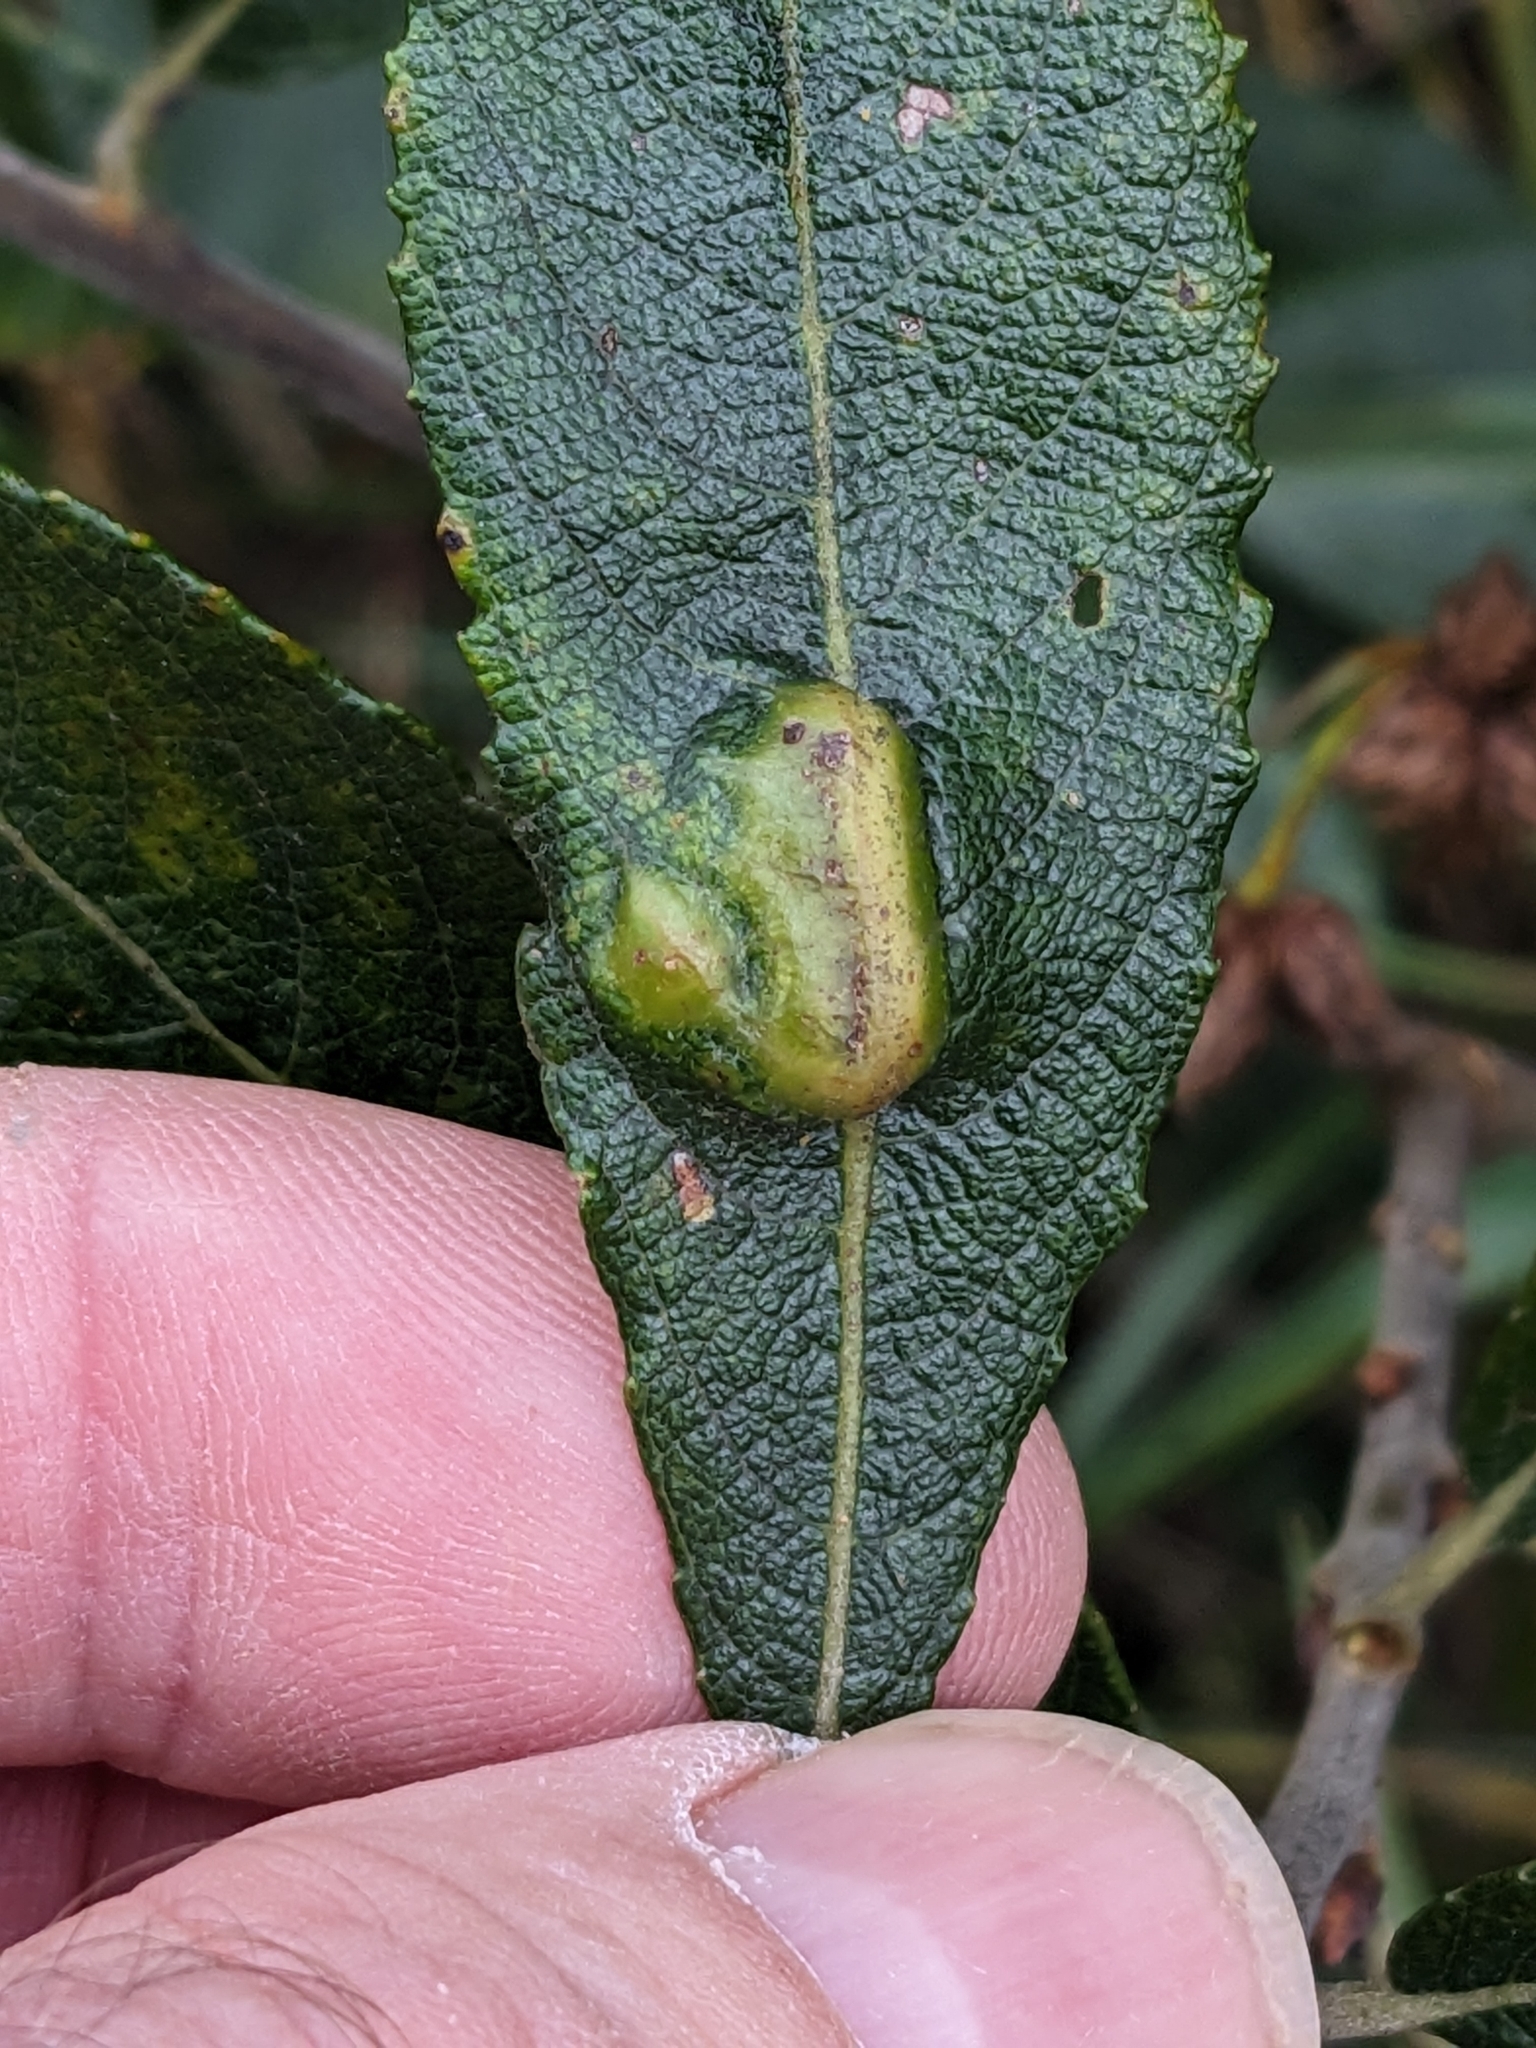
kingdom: Animalia
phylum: Arthropoda
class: Insecta
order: Hymenoptera
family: Tenthredinidae
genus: Pontania
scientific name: Pontania pedunculi
